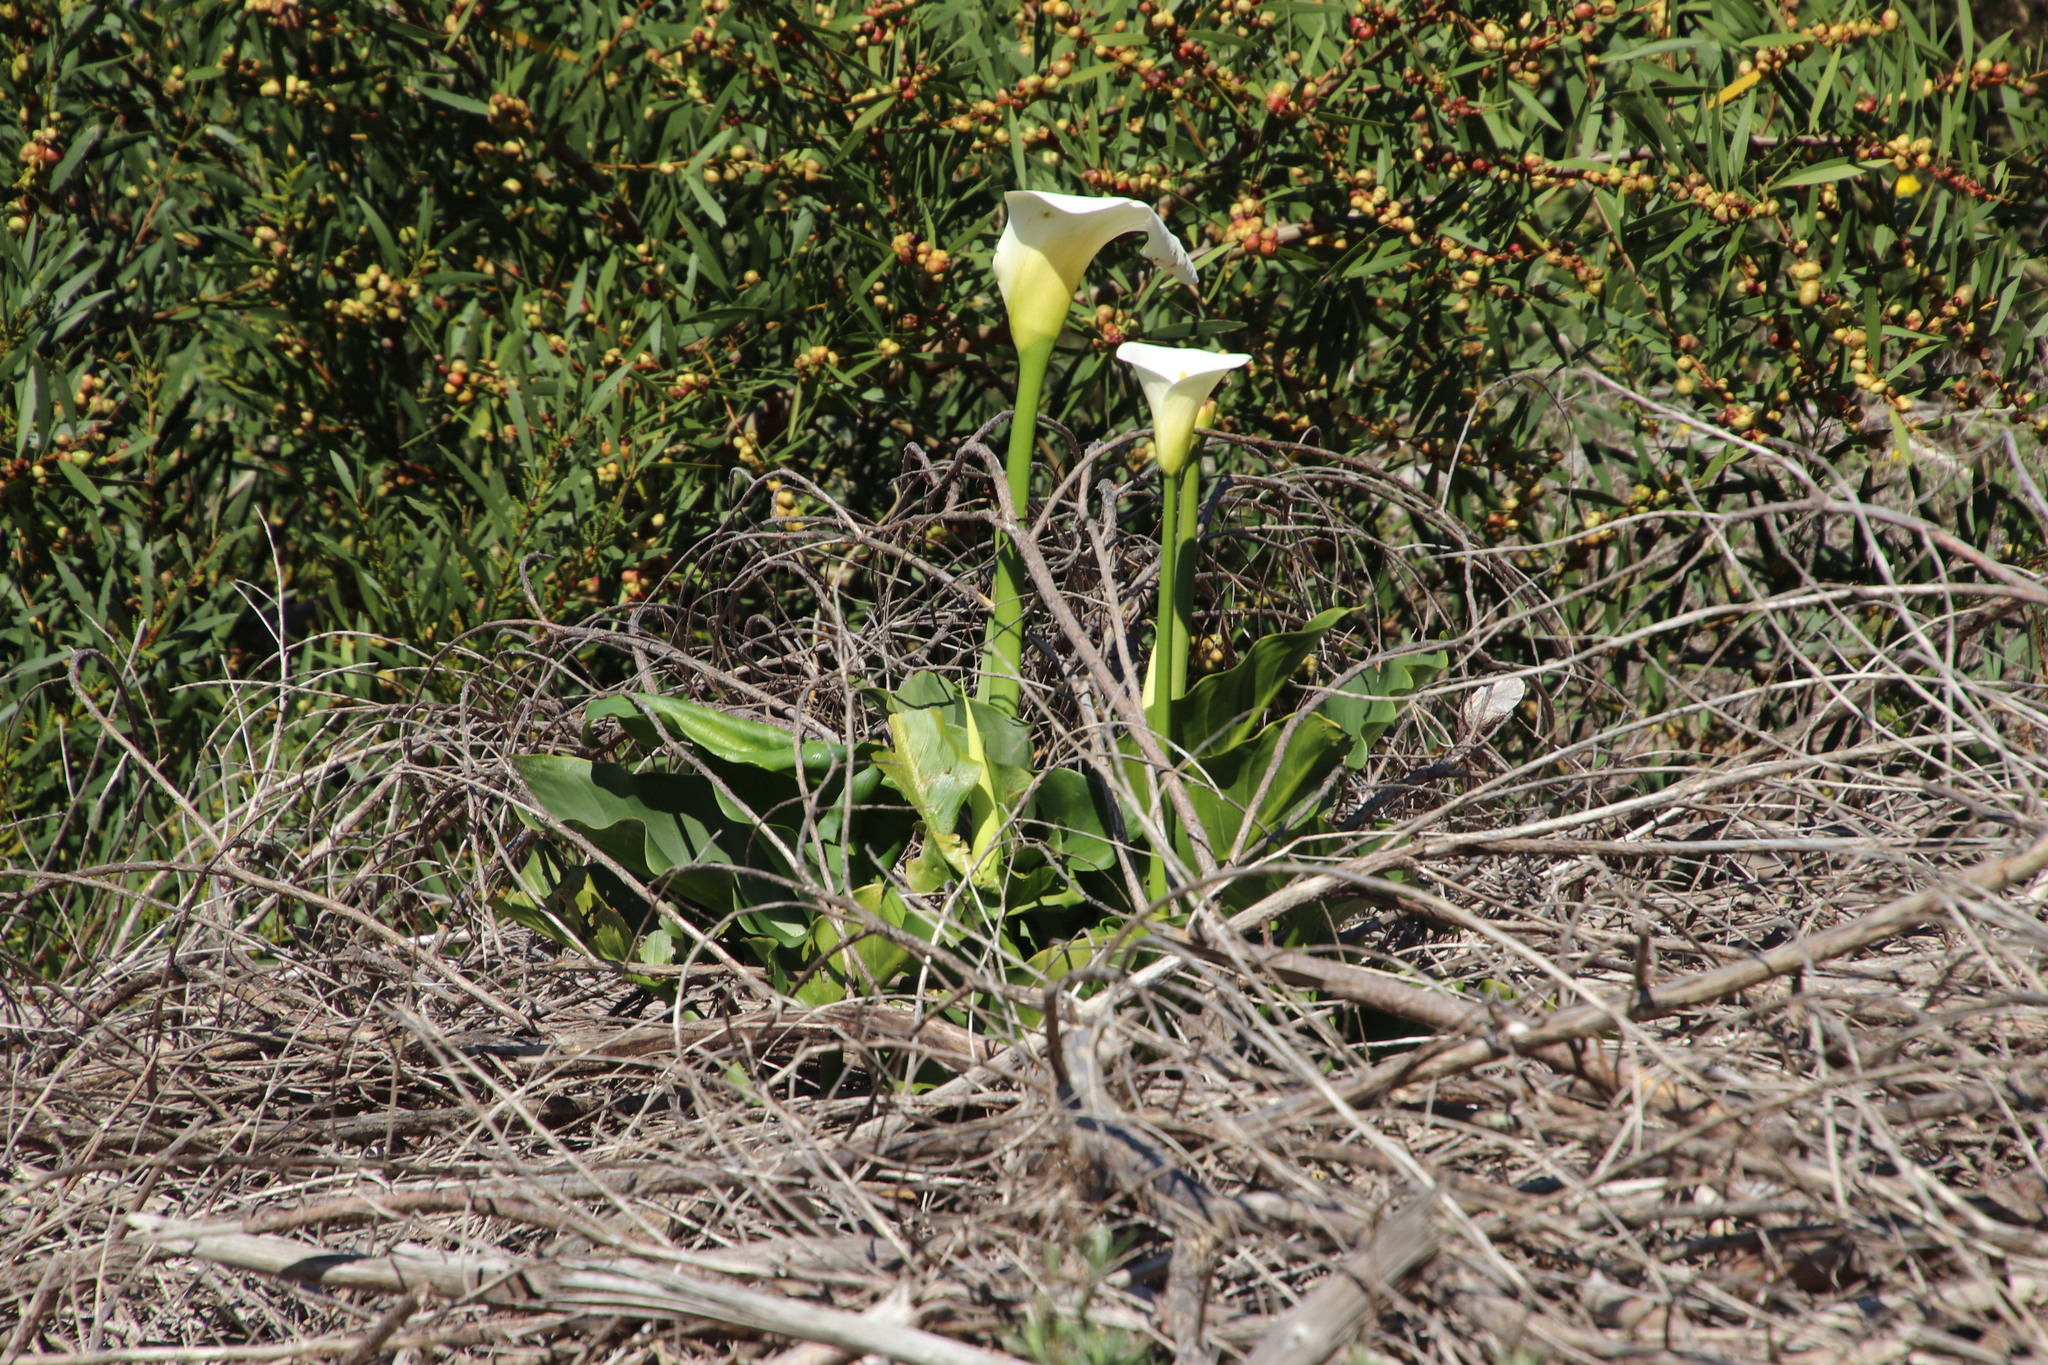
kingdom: Plantae
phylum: Tracheophyta
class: Liliopsida
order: Alismatales
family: Araceae
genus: Zantedeschia
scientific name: Zantedeschia aethiopica
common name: Altar-lily
